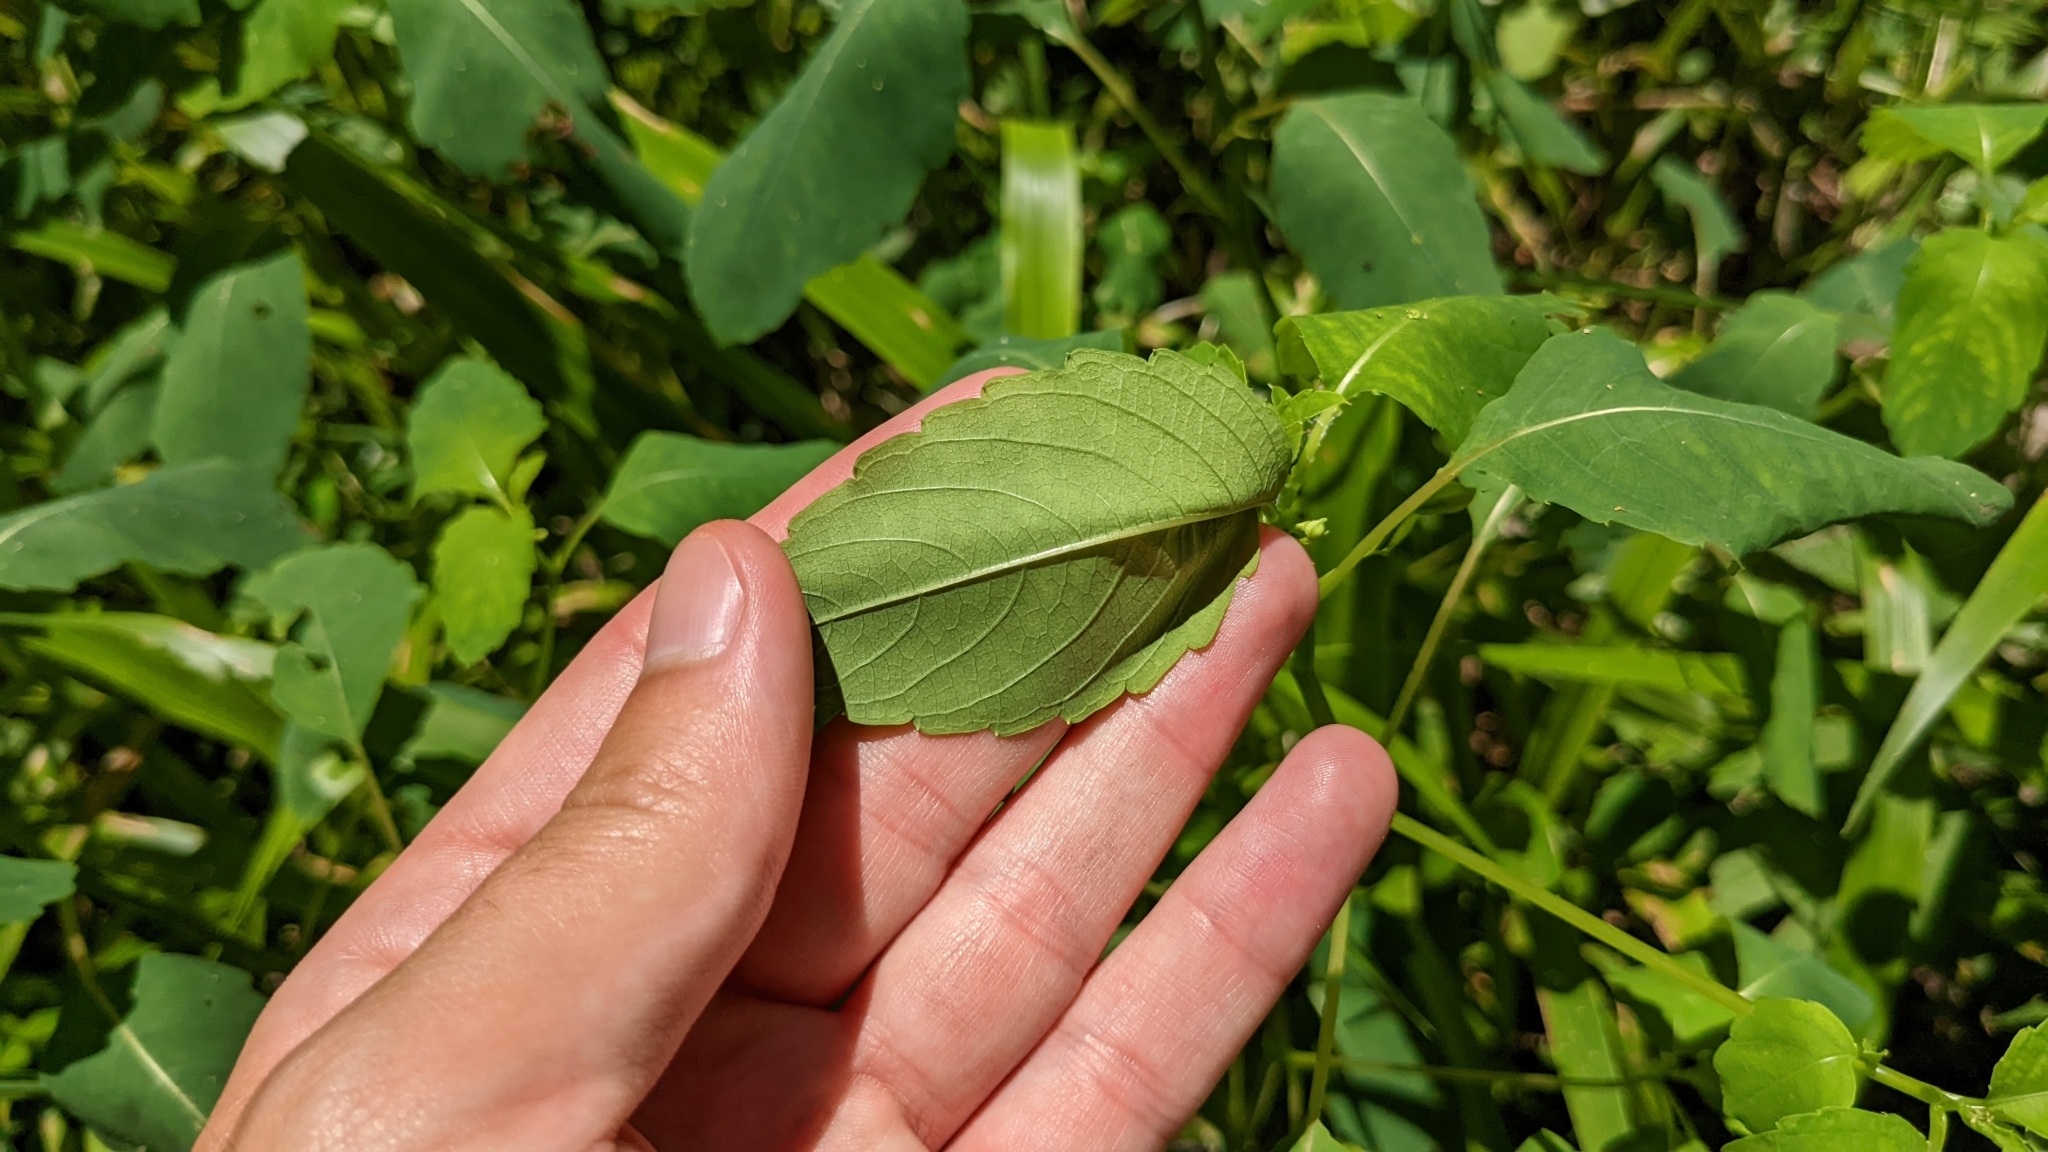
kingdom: Plantae
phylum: Tracheophyta
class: Magnoliopsida
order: Ericales
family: Balsaminaceae
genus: Impatiens
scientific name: Impatiens capensis
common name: Orange balsam
